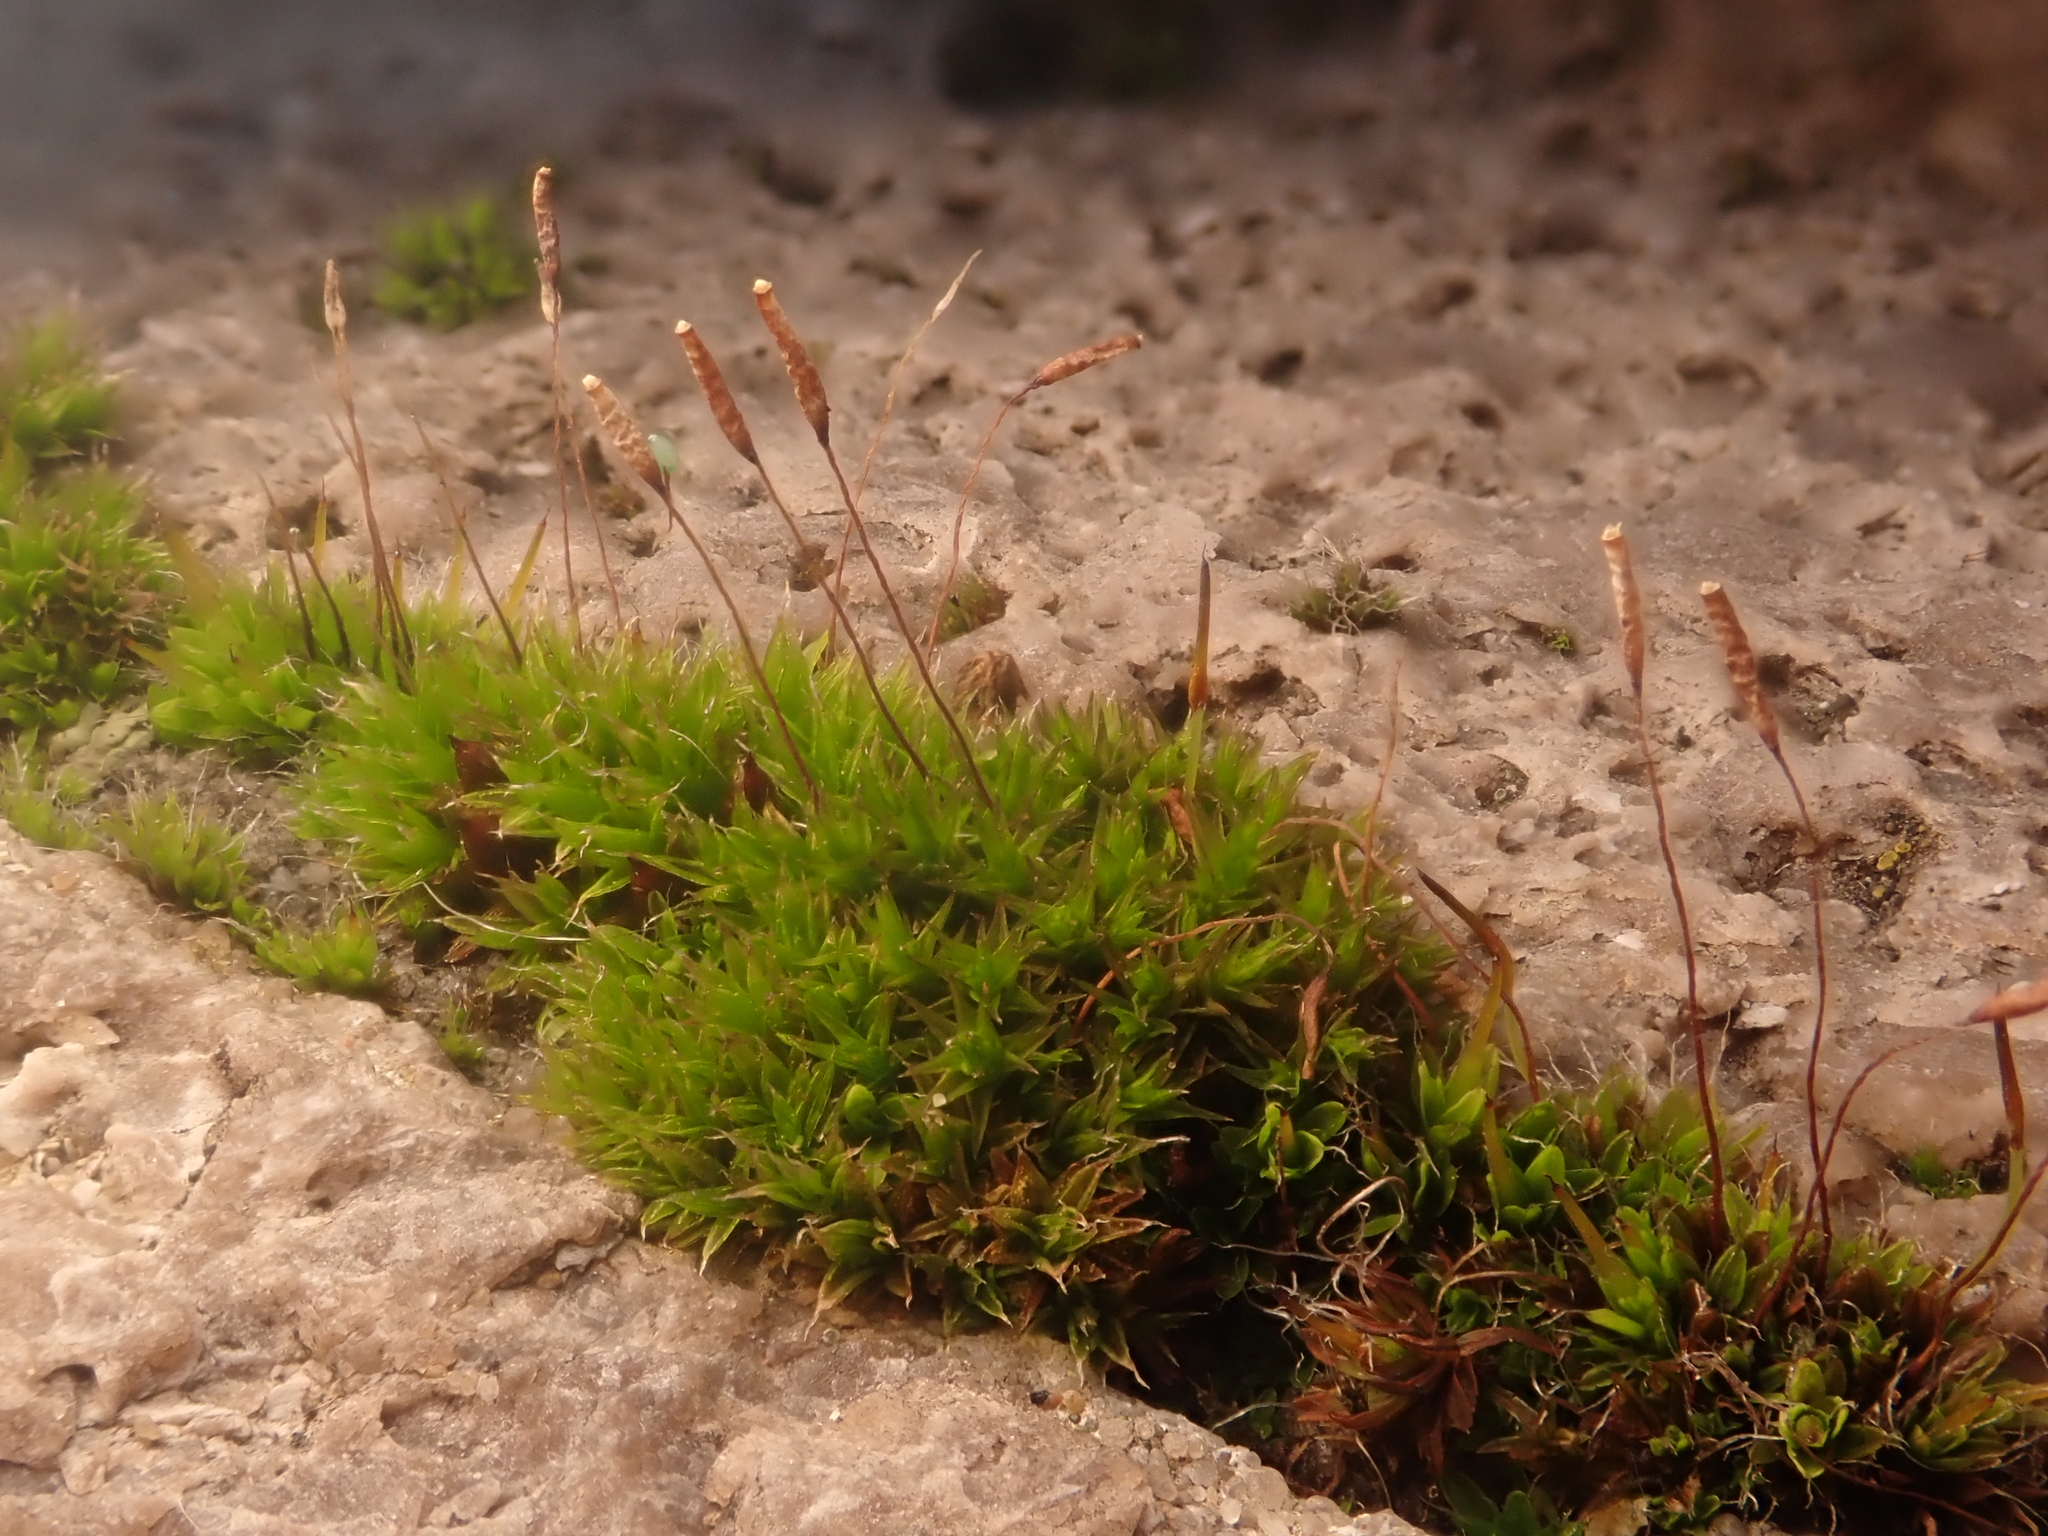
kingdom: Plantae
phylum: Bryophyta
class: Bryopsida
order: Pottiales
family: Pottiaceae
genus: Tortula
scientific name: Tortula muralis
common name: Wall screw-moss
